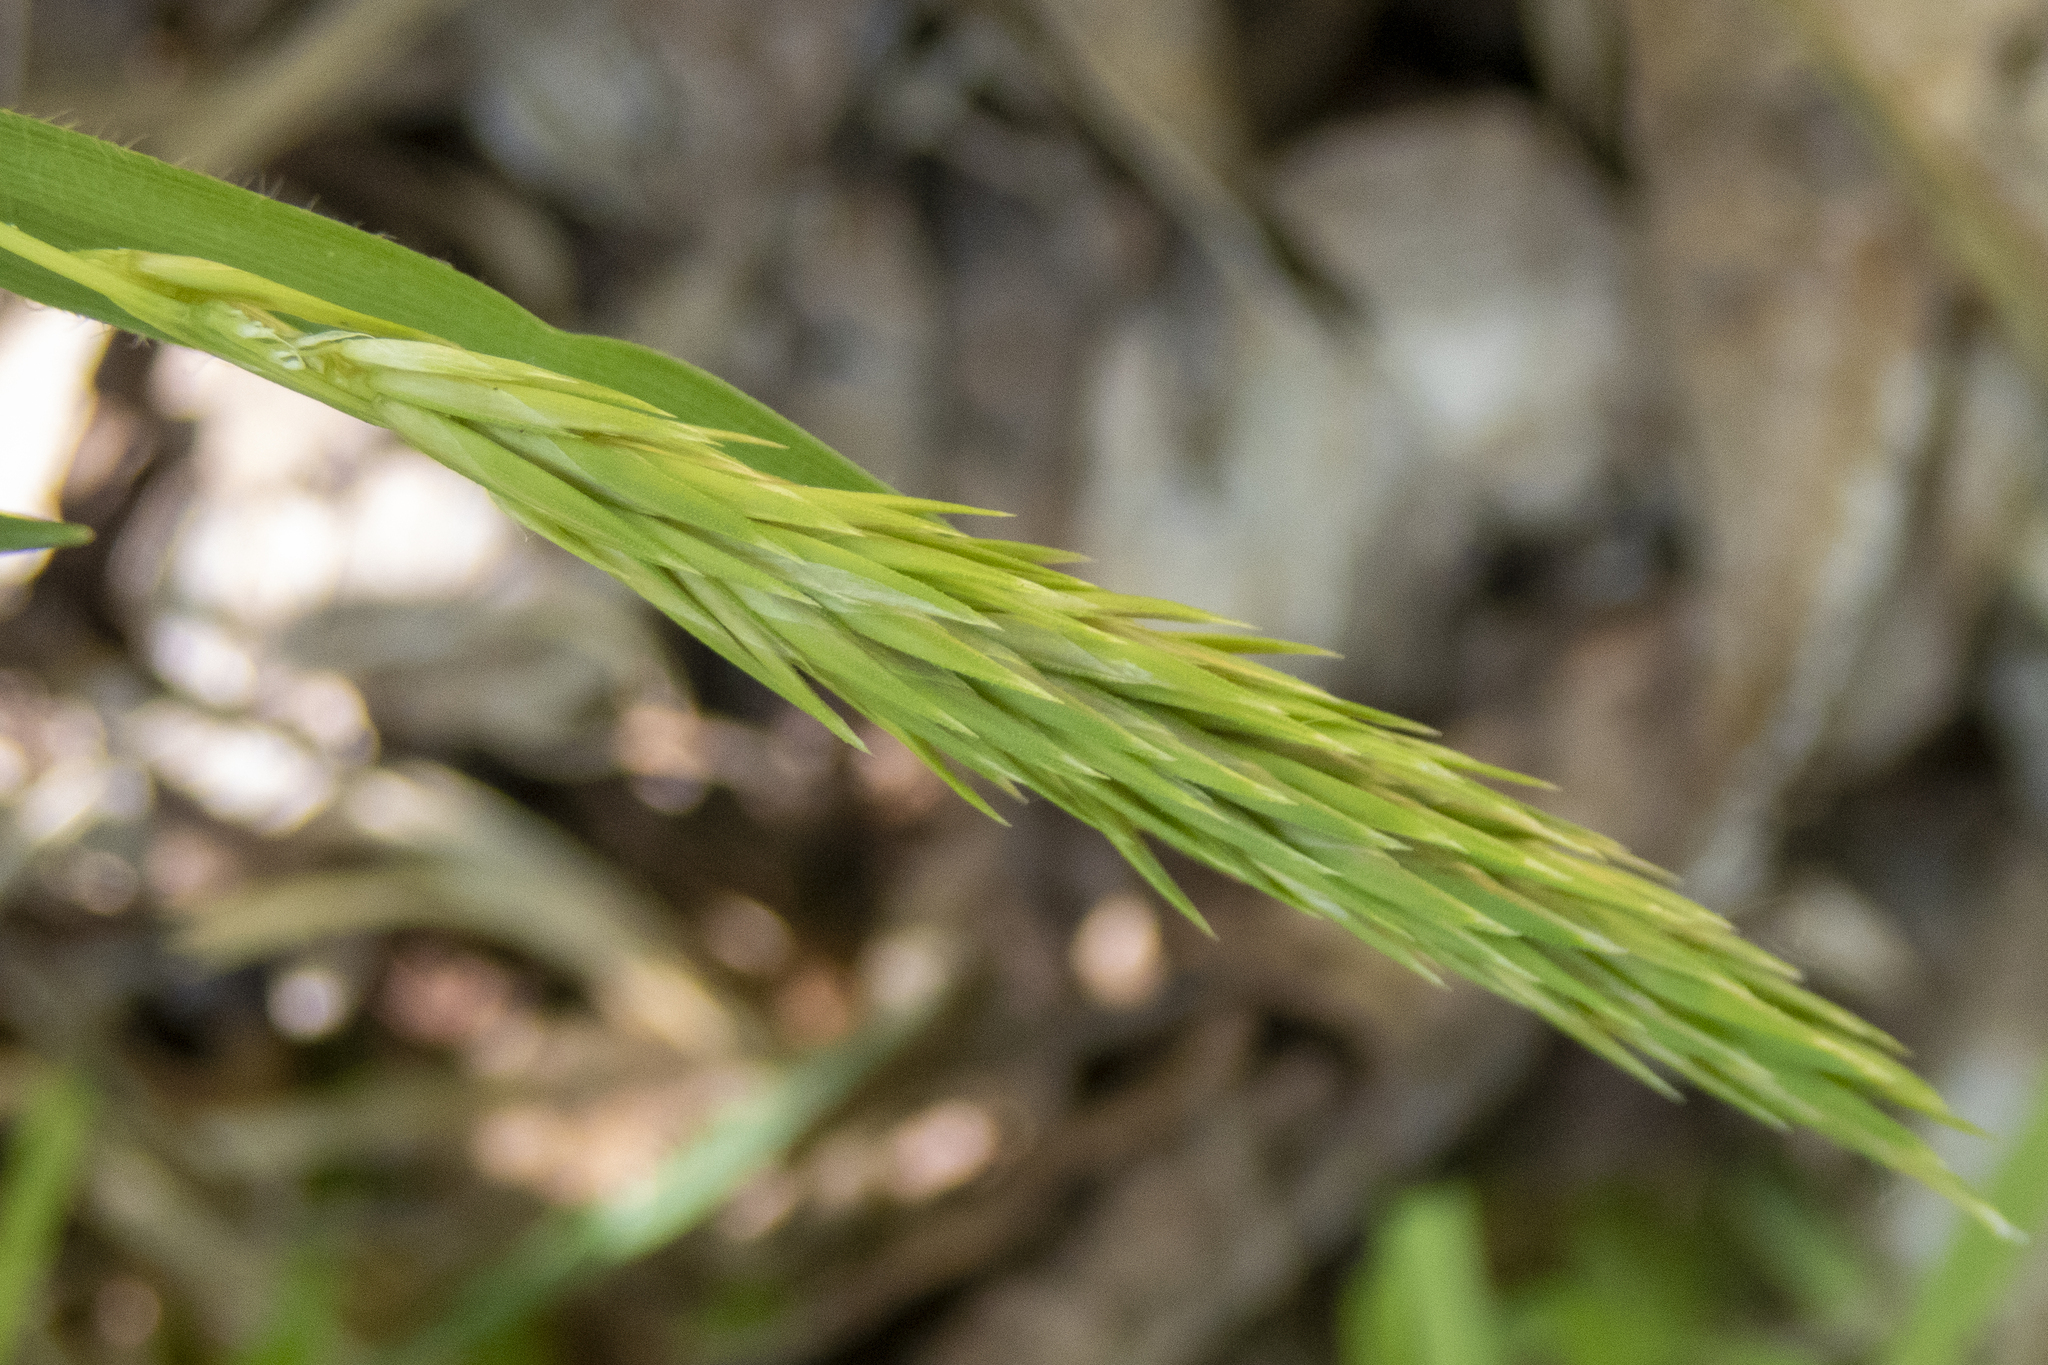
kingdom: Plantae
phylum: Tracheophyta
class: Liliopsida
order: Poales
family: Poaceae
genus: Anthoxanthum
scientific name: Anthoxanthum odoratum
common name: Sweet vernalgrass
